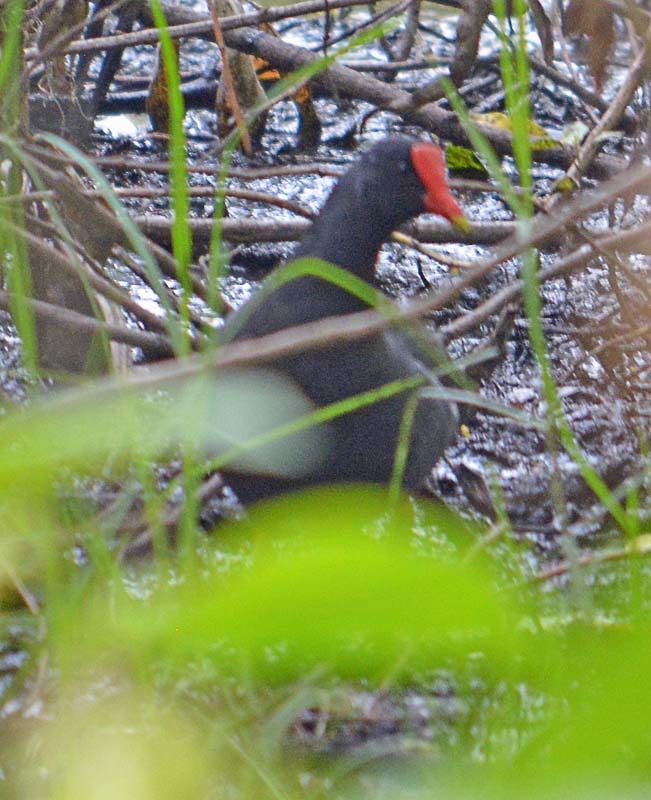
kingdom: Animalia
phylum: Chordata
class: Aves
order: Gruiformes
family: Rallidae
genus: Gallinula
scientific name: Gallinula chloropus
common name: Common moorhen
